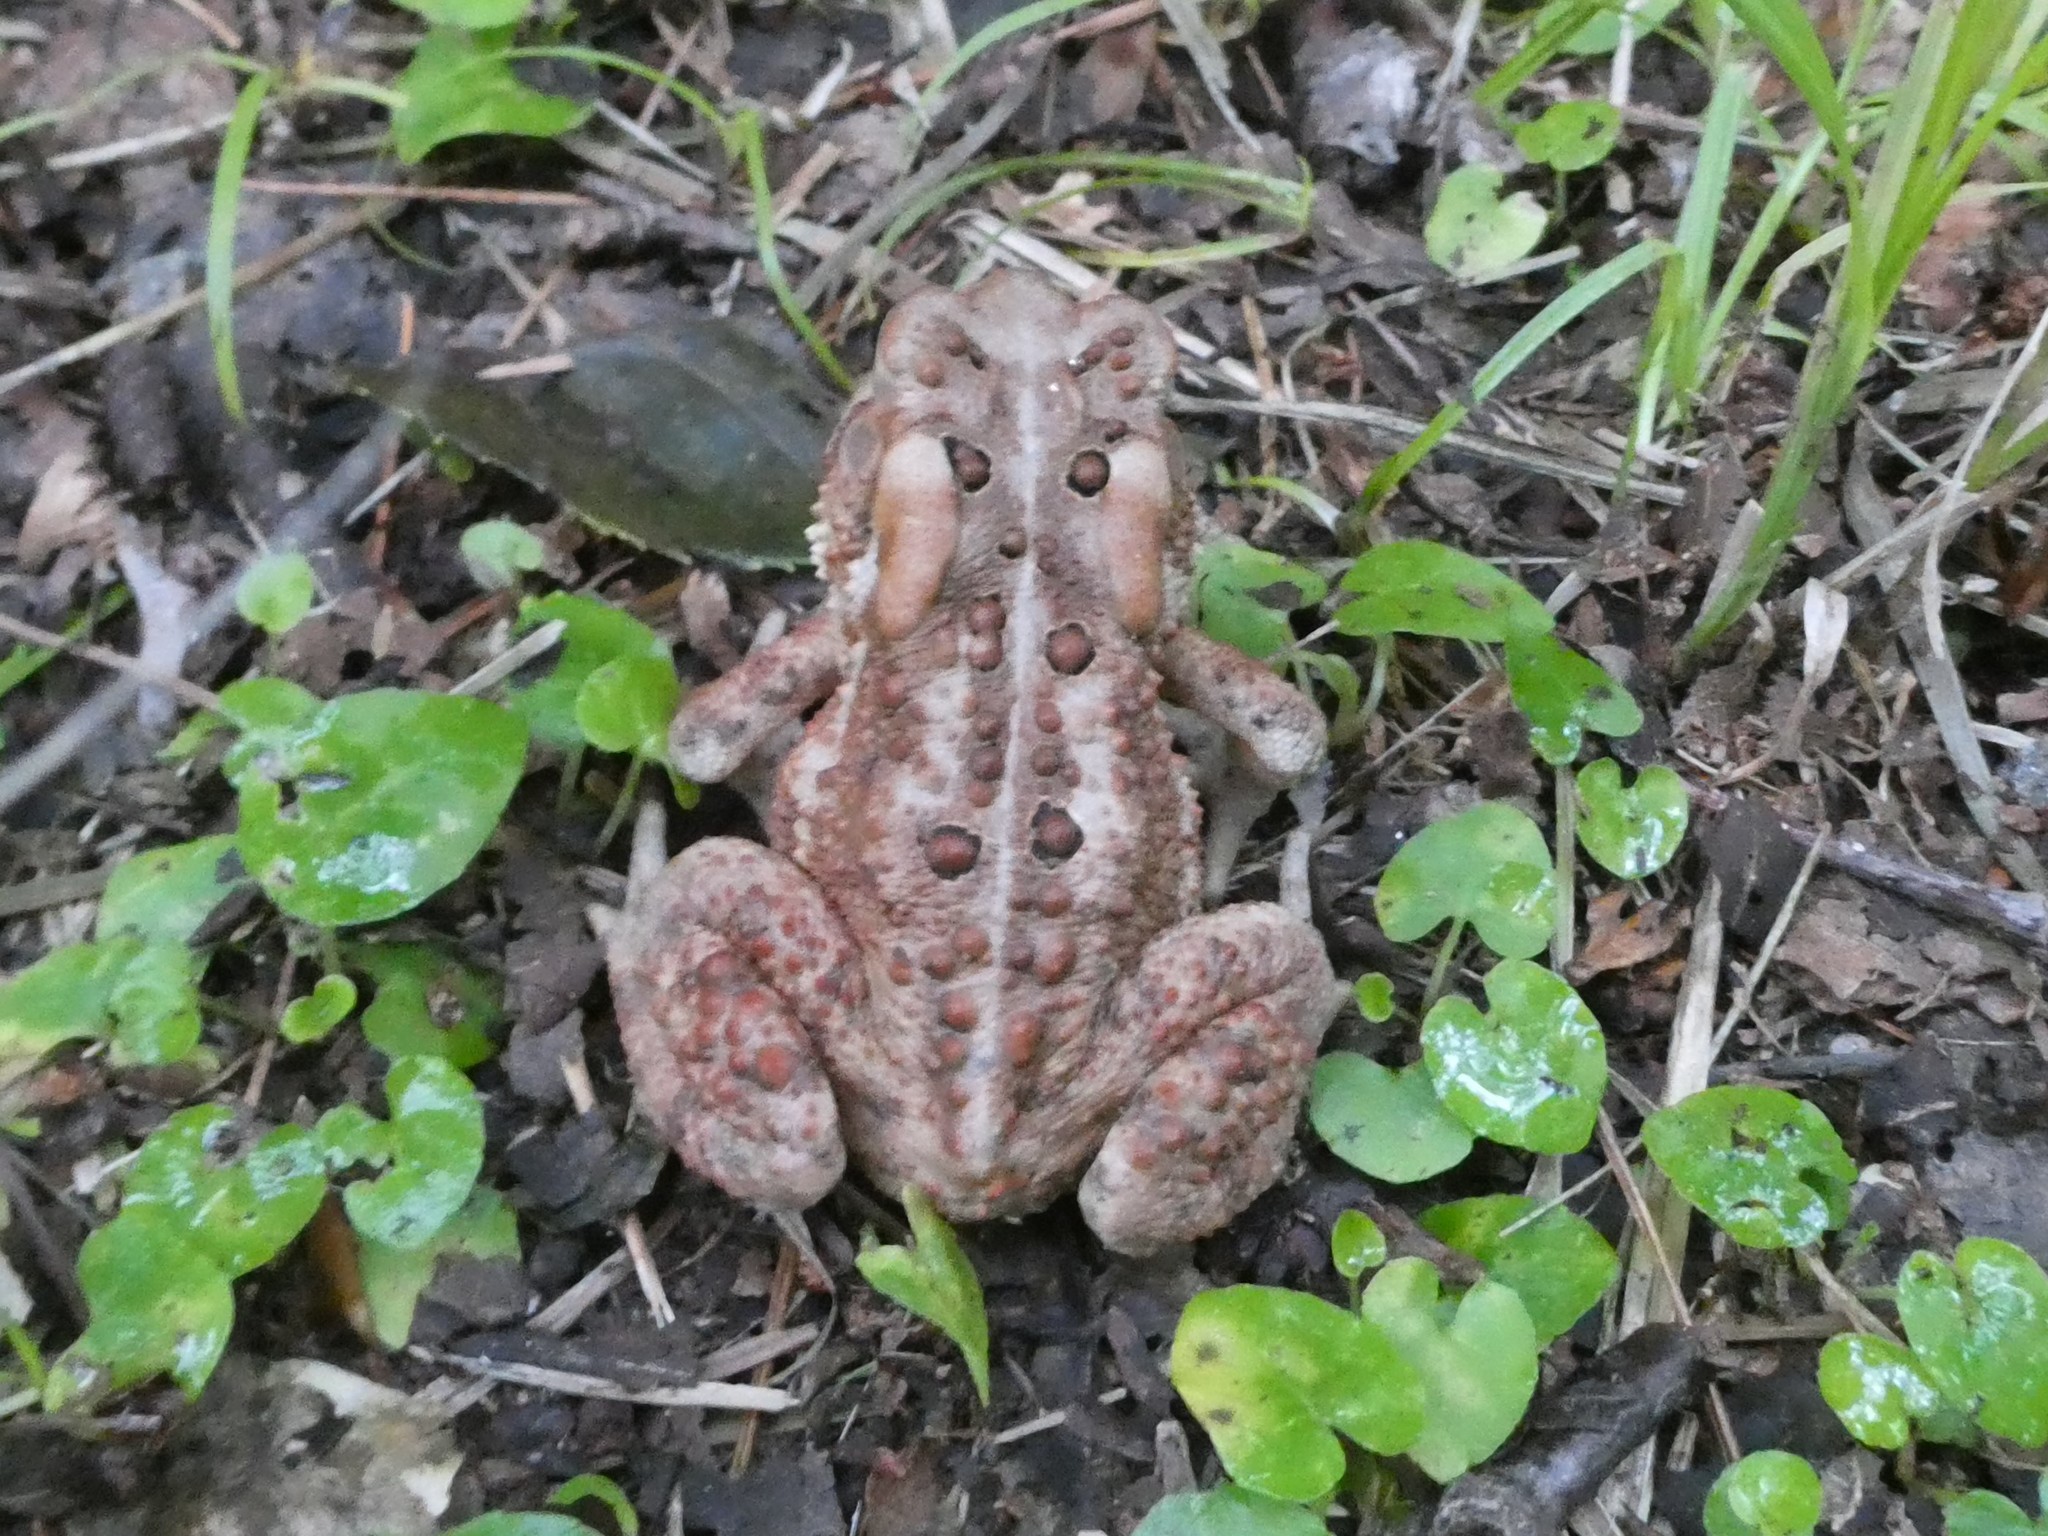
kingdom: Animalia
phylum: Chordata
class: Amphibia
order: Anura
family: Bufonidae
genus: Anaxyrus
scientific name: Anaxyrus americanus
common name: American toad
